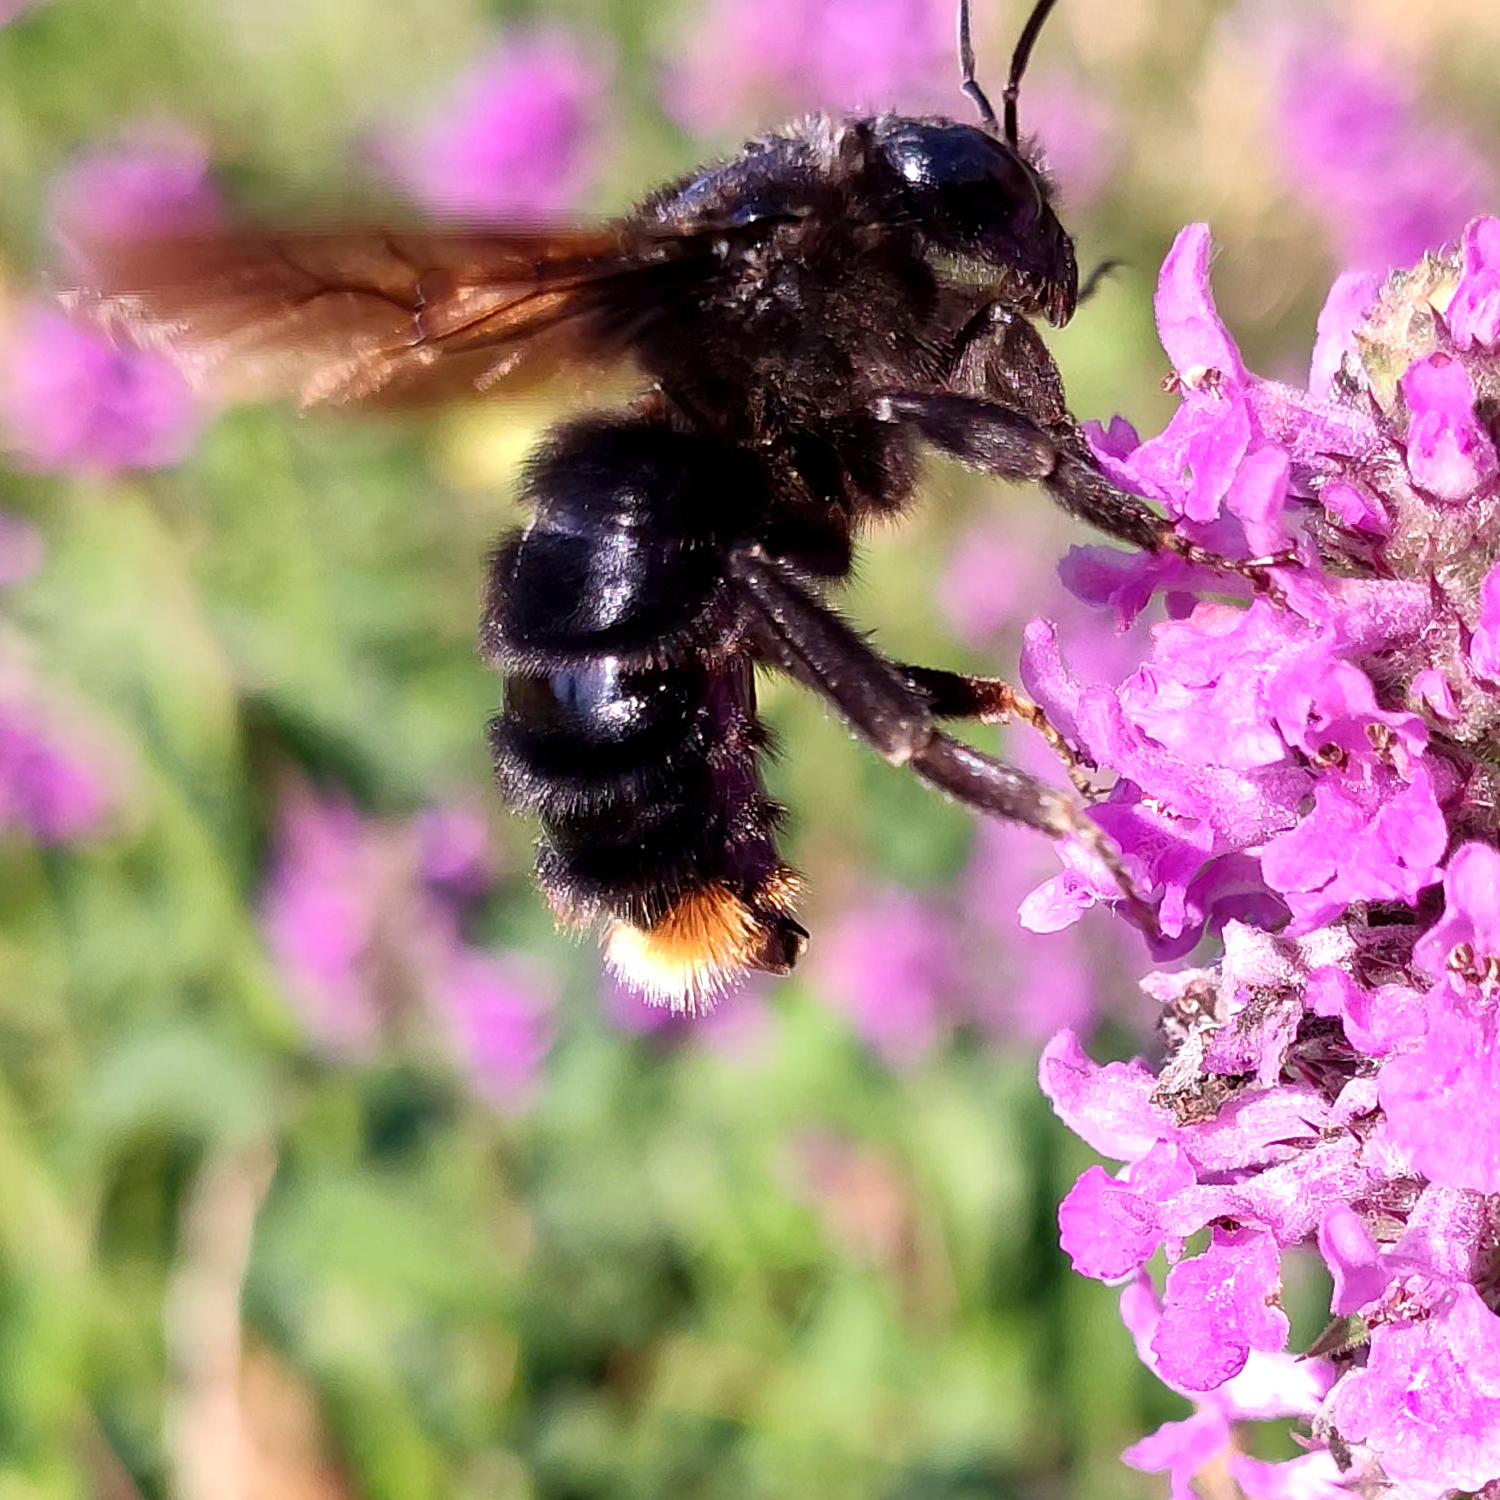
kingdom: Animalia
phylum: Arthropoda
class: Insecta
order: Hymenoptera
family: Apidae
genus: Bombus
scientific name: Bombus rupestris
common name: Hill cuckoo-bee
